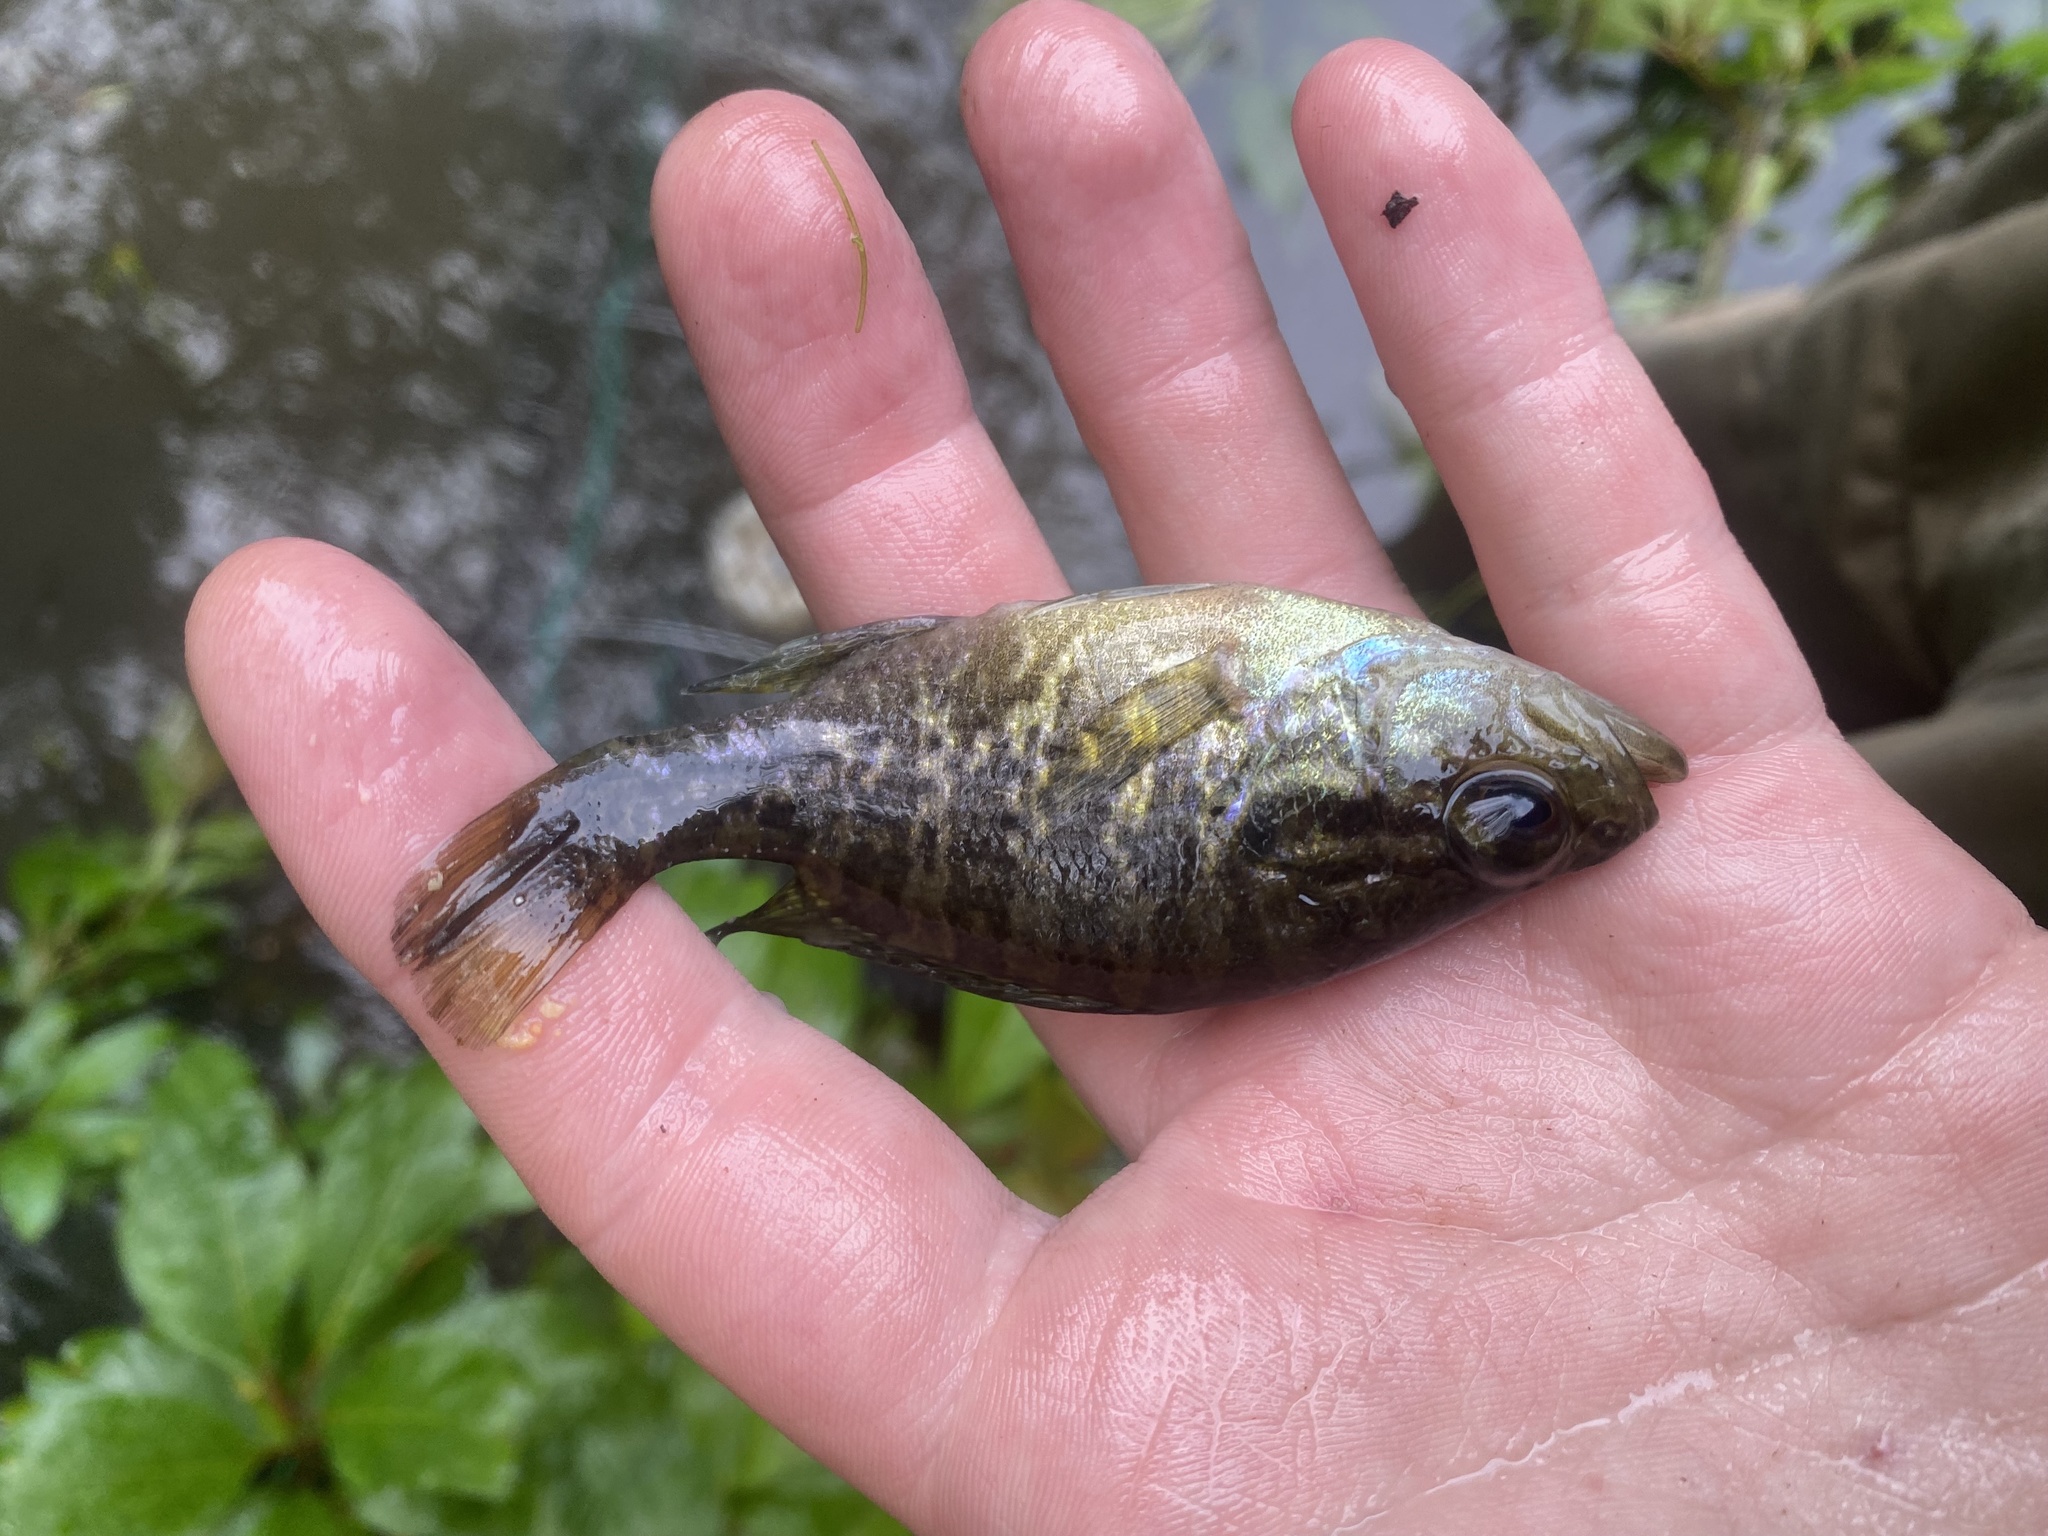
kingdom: Animalia
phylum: Chordata
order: Perciformes
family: Centrarchidae
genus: Lepomis
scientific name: Lepomis gulosus
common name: Warmouth
